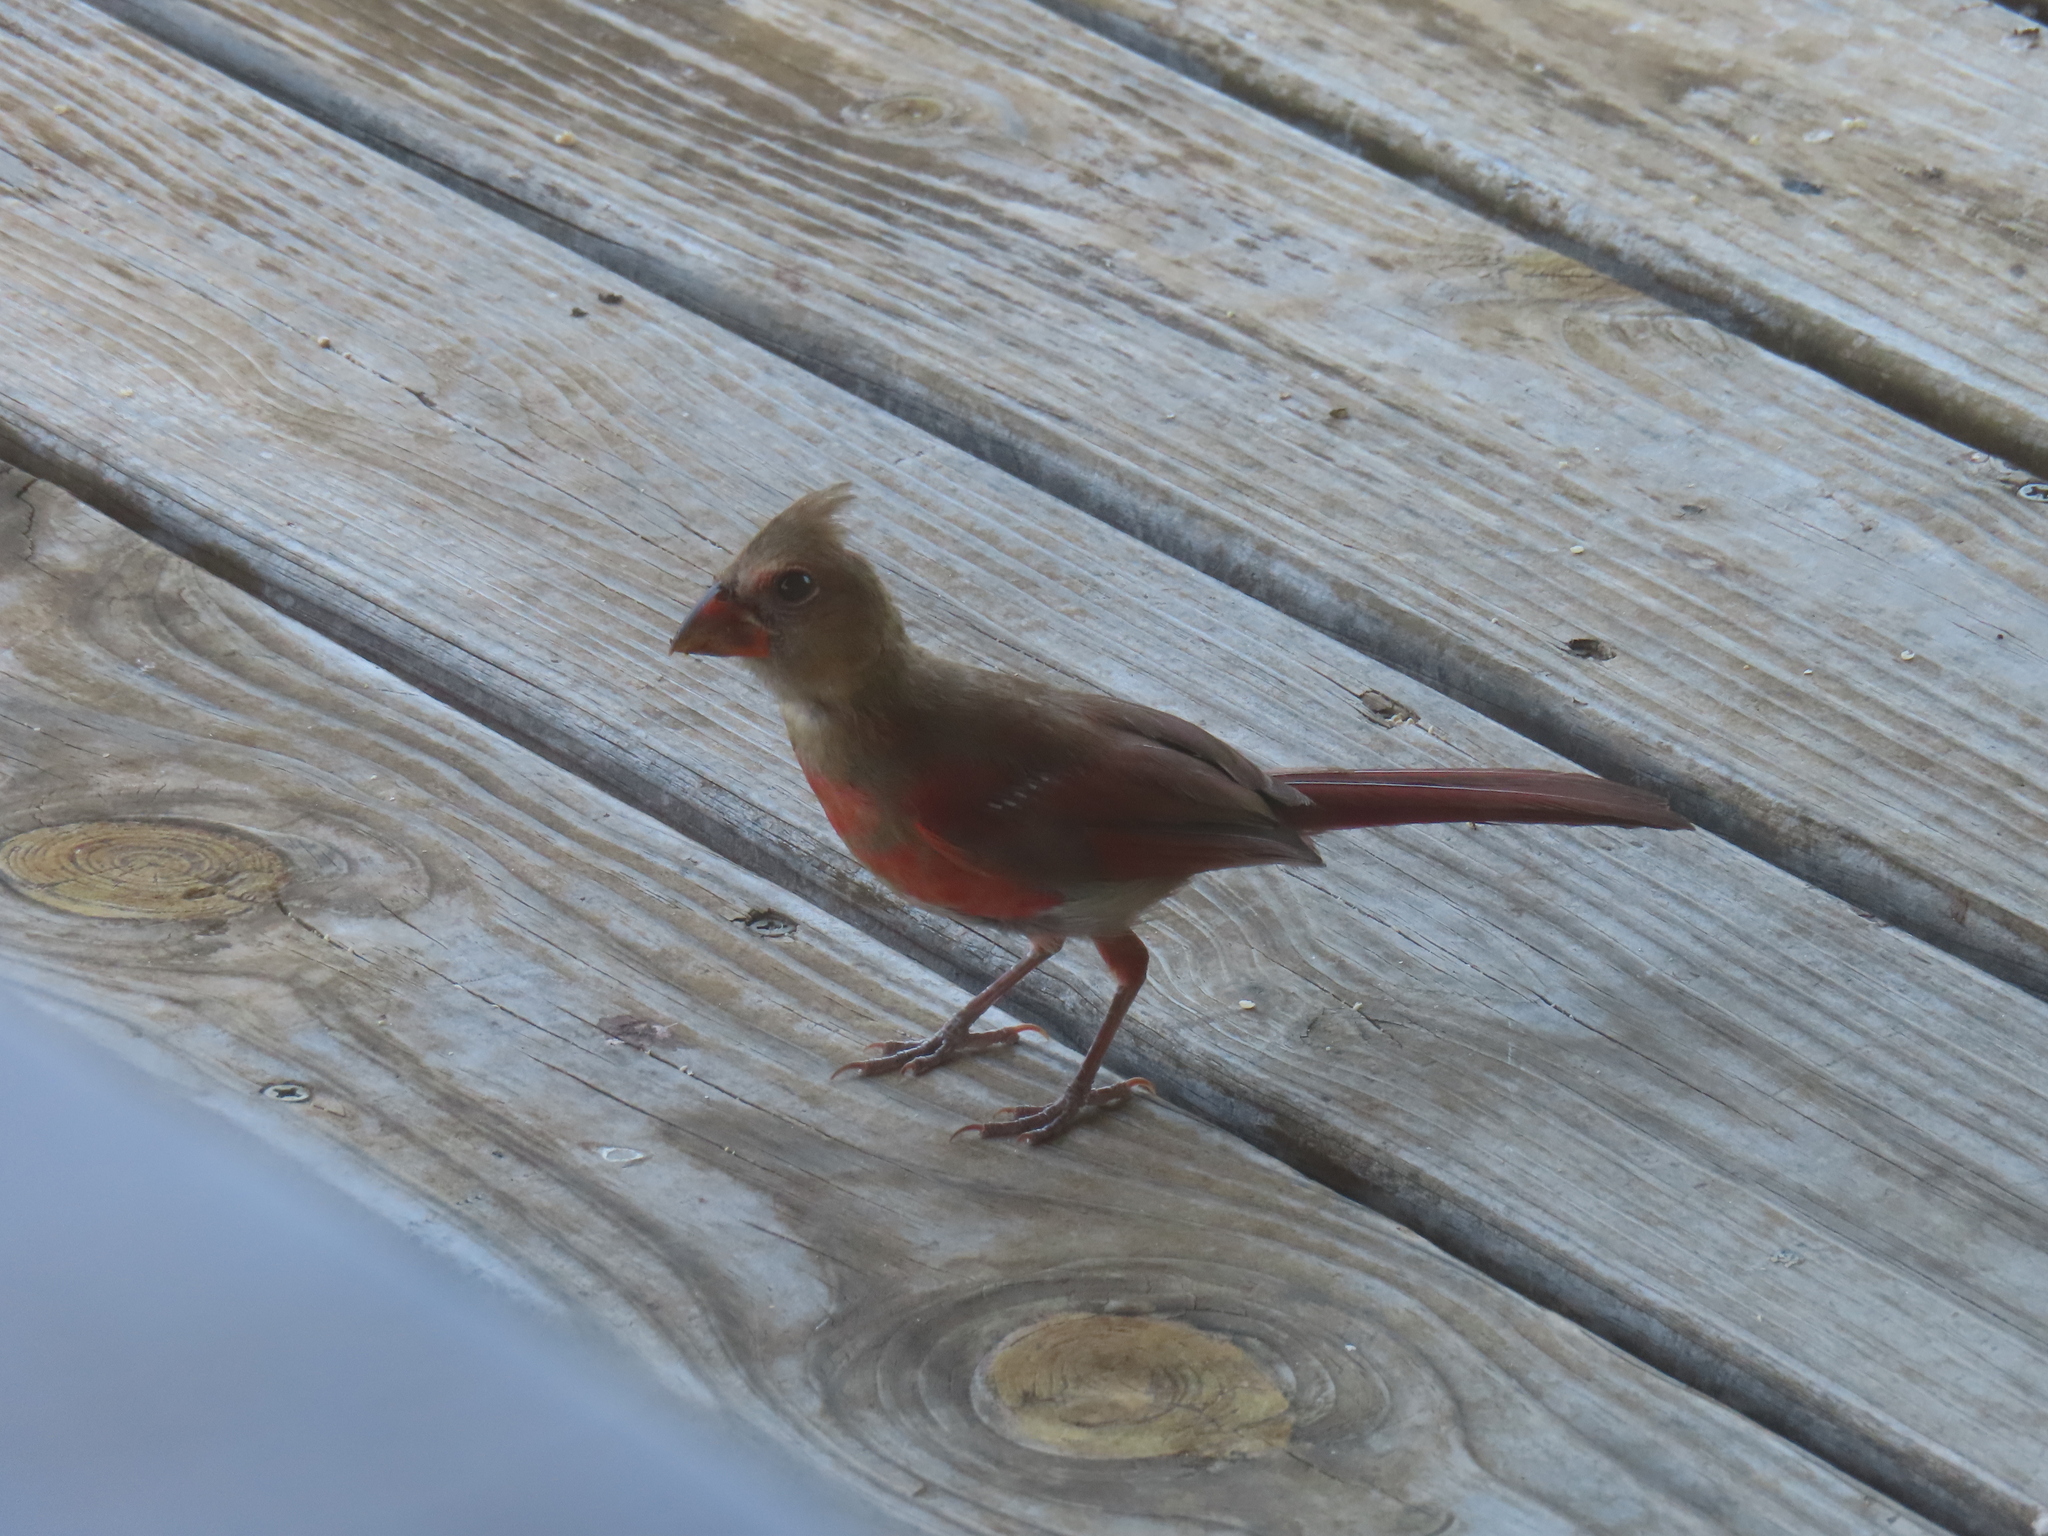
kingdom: Animalia
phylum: Chordata
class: Aves
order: Passeriformes
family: Cardinalidae
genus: Cardinalis
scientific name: Cardinalis cardinalis
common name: Northern cardinal
